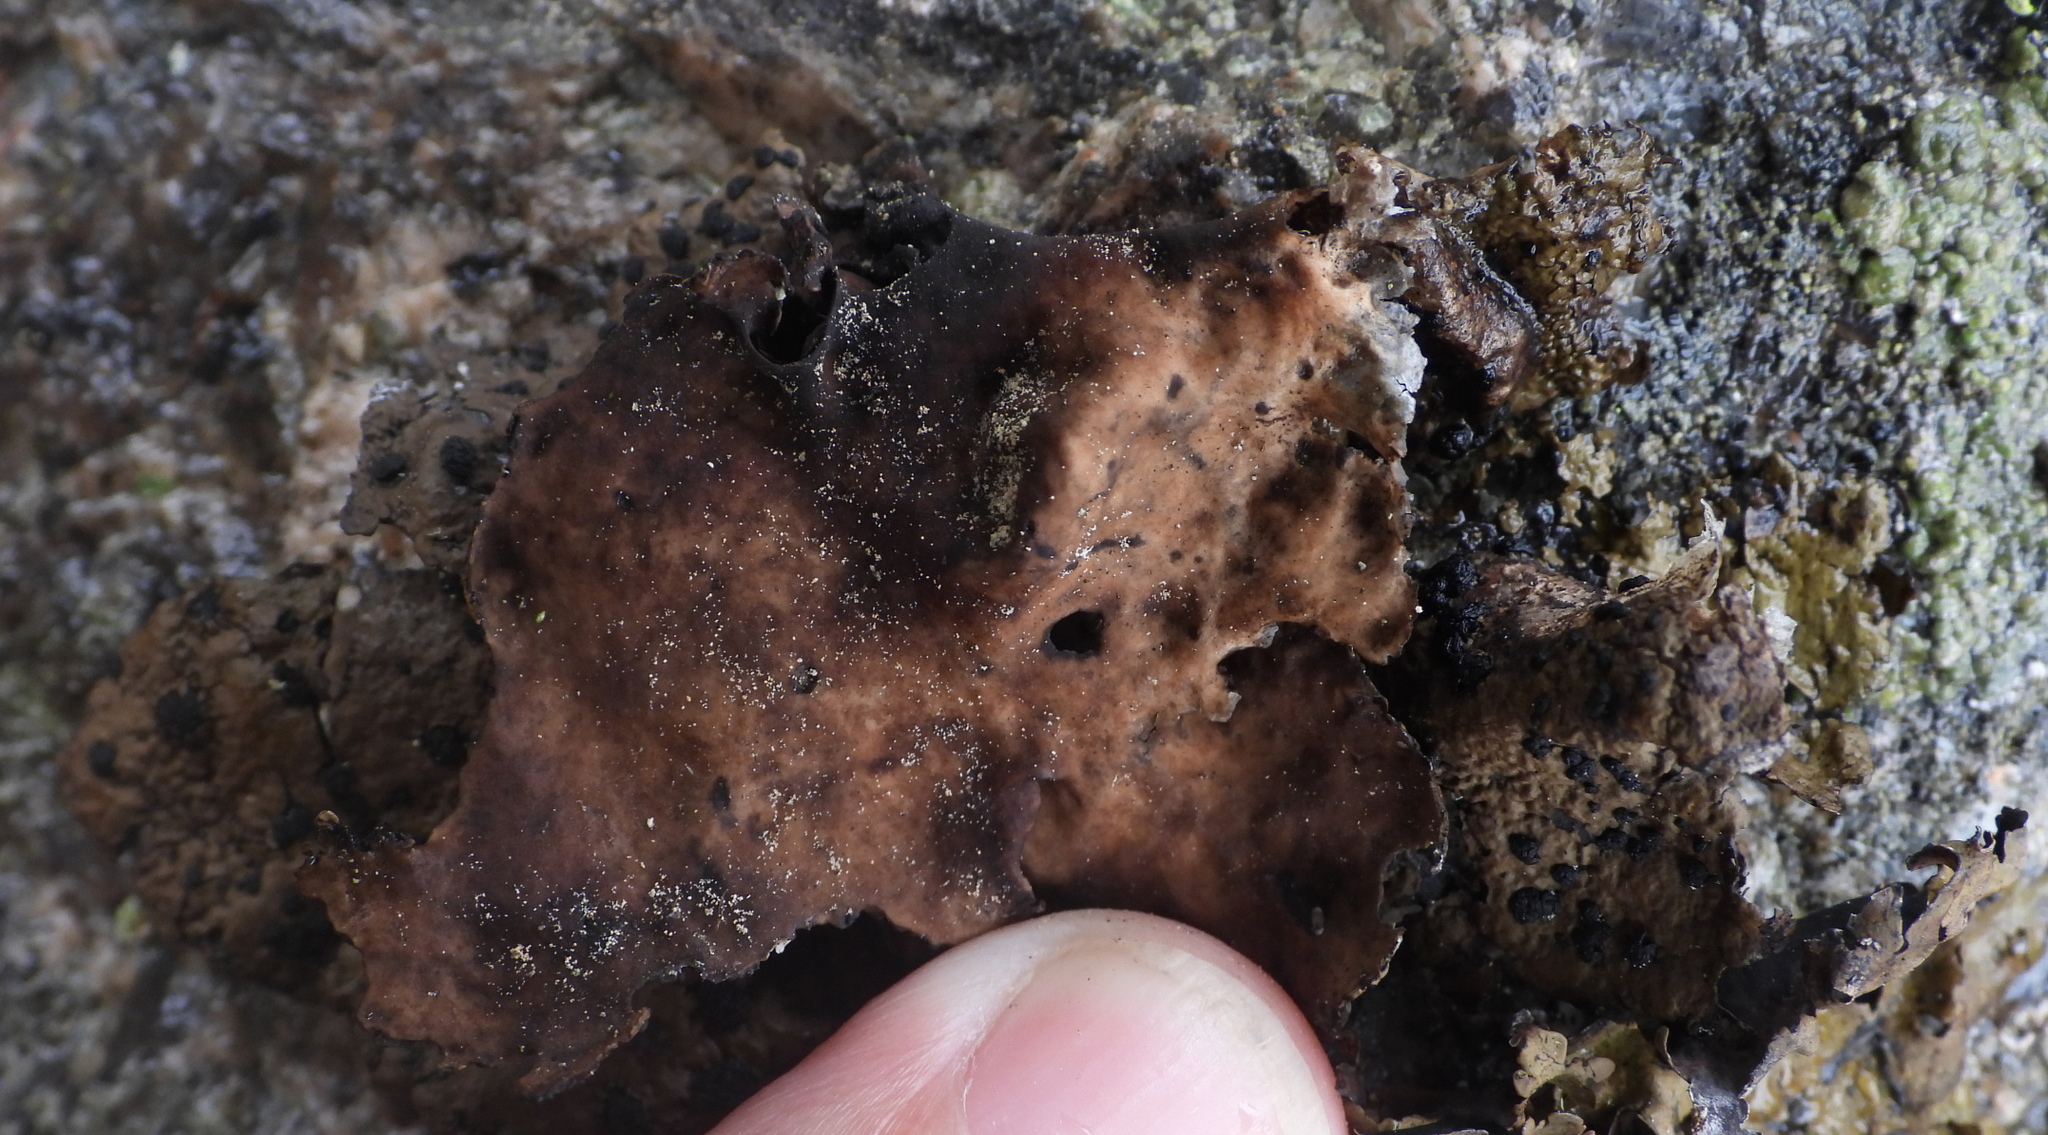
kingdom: Fungi
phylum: Ascomycota
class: Lecanoromycetes
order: Umbilicariales
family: Umbilicariaceae
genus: Umbilicaria
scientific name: Umbilicaria hyperborea
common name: Blistered rock tripe
